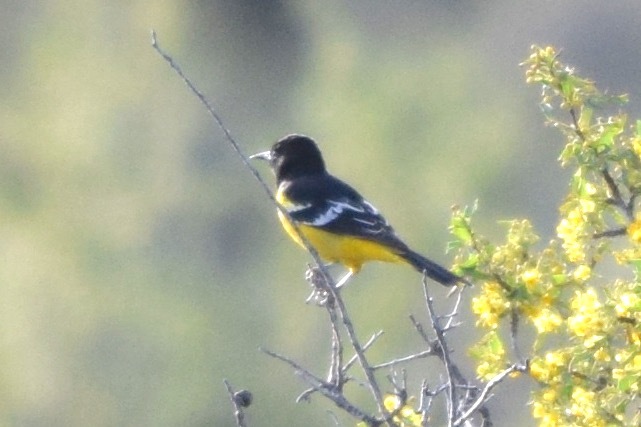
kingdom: Animalia
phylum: Chordata
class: Aves
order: Passeriformes
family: Icteridae
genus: Icterus
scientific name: Icterus parisorum
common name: Scott's oriole
